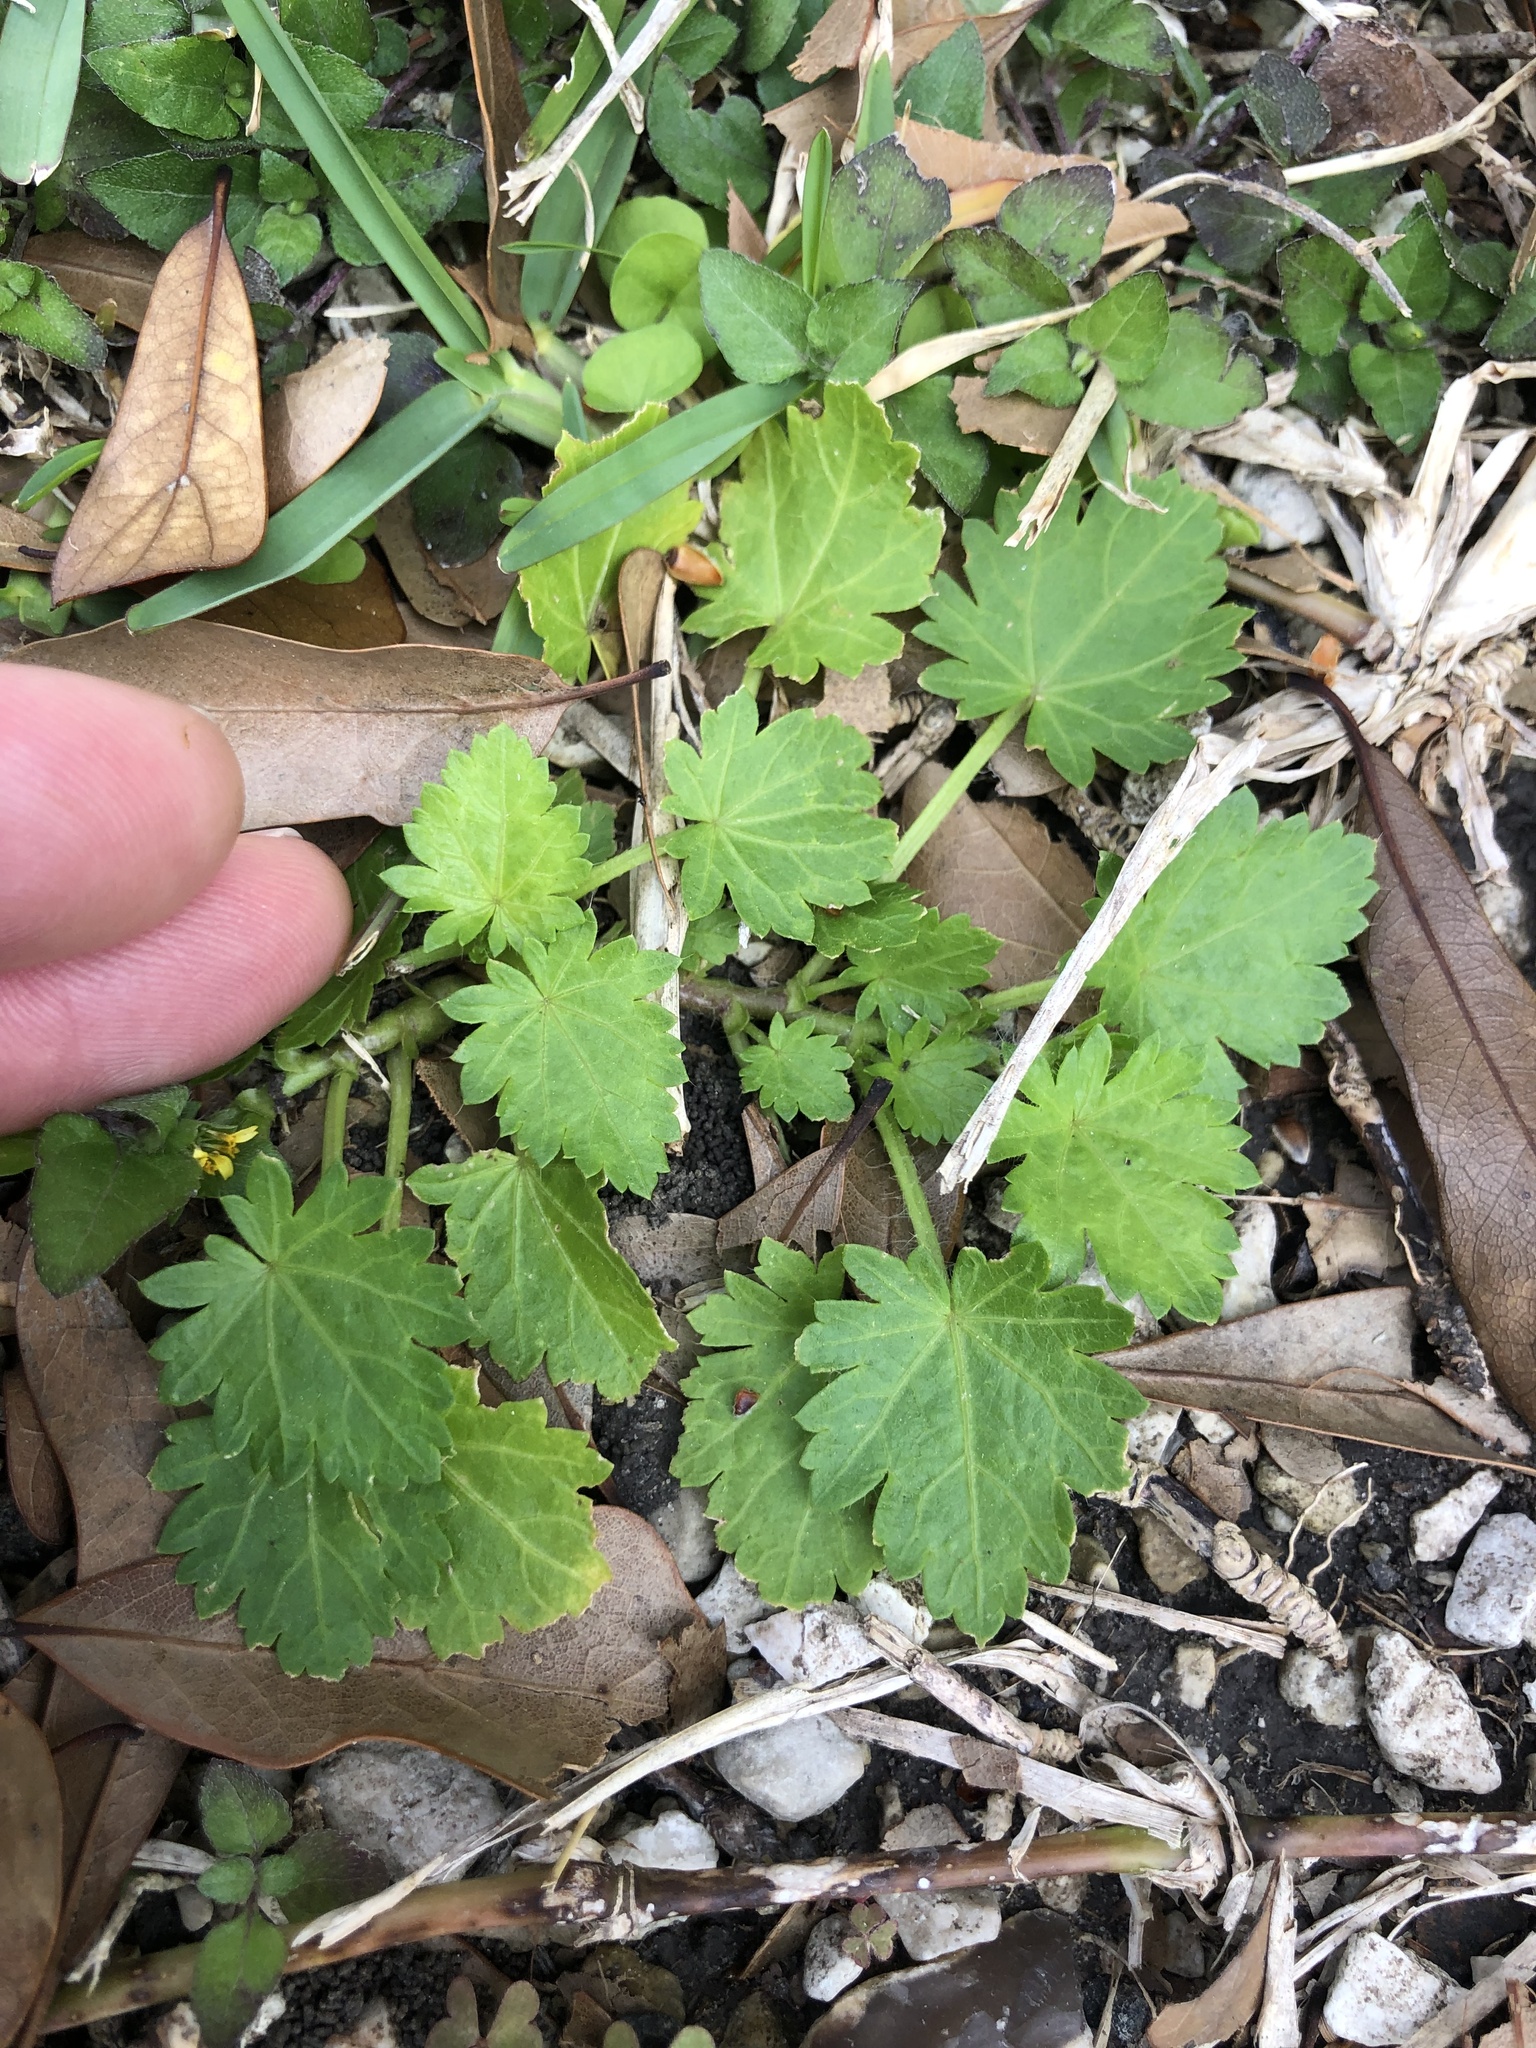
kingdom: Plantae
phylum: Tracheophyta
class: Magnoliopsida
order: Malvales
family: Malvaceae
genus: Modiola
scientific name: Modiola caroliniana
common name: Carolina bristlemallow
